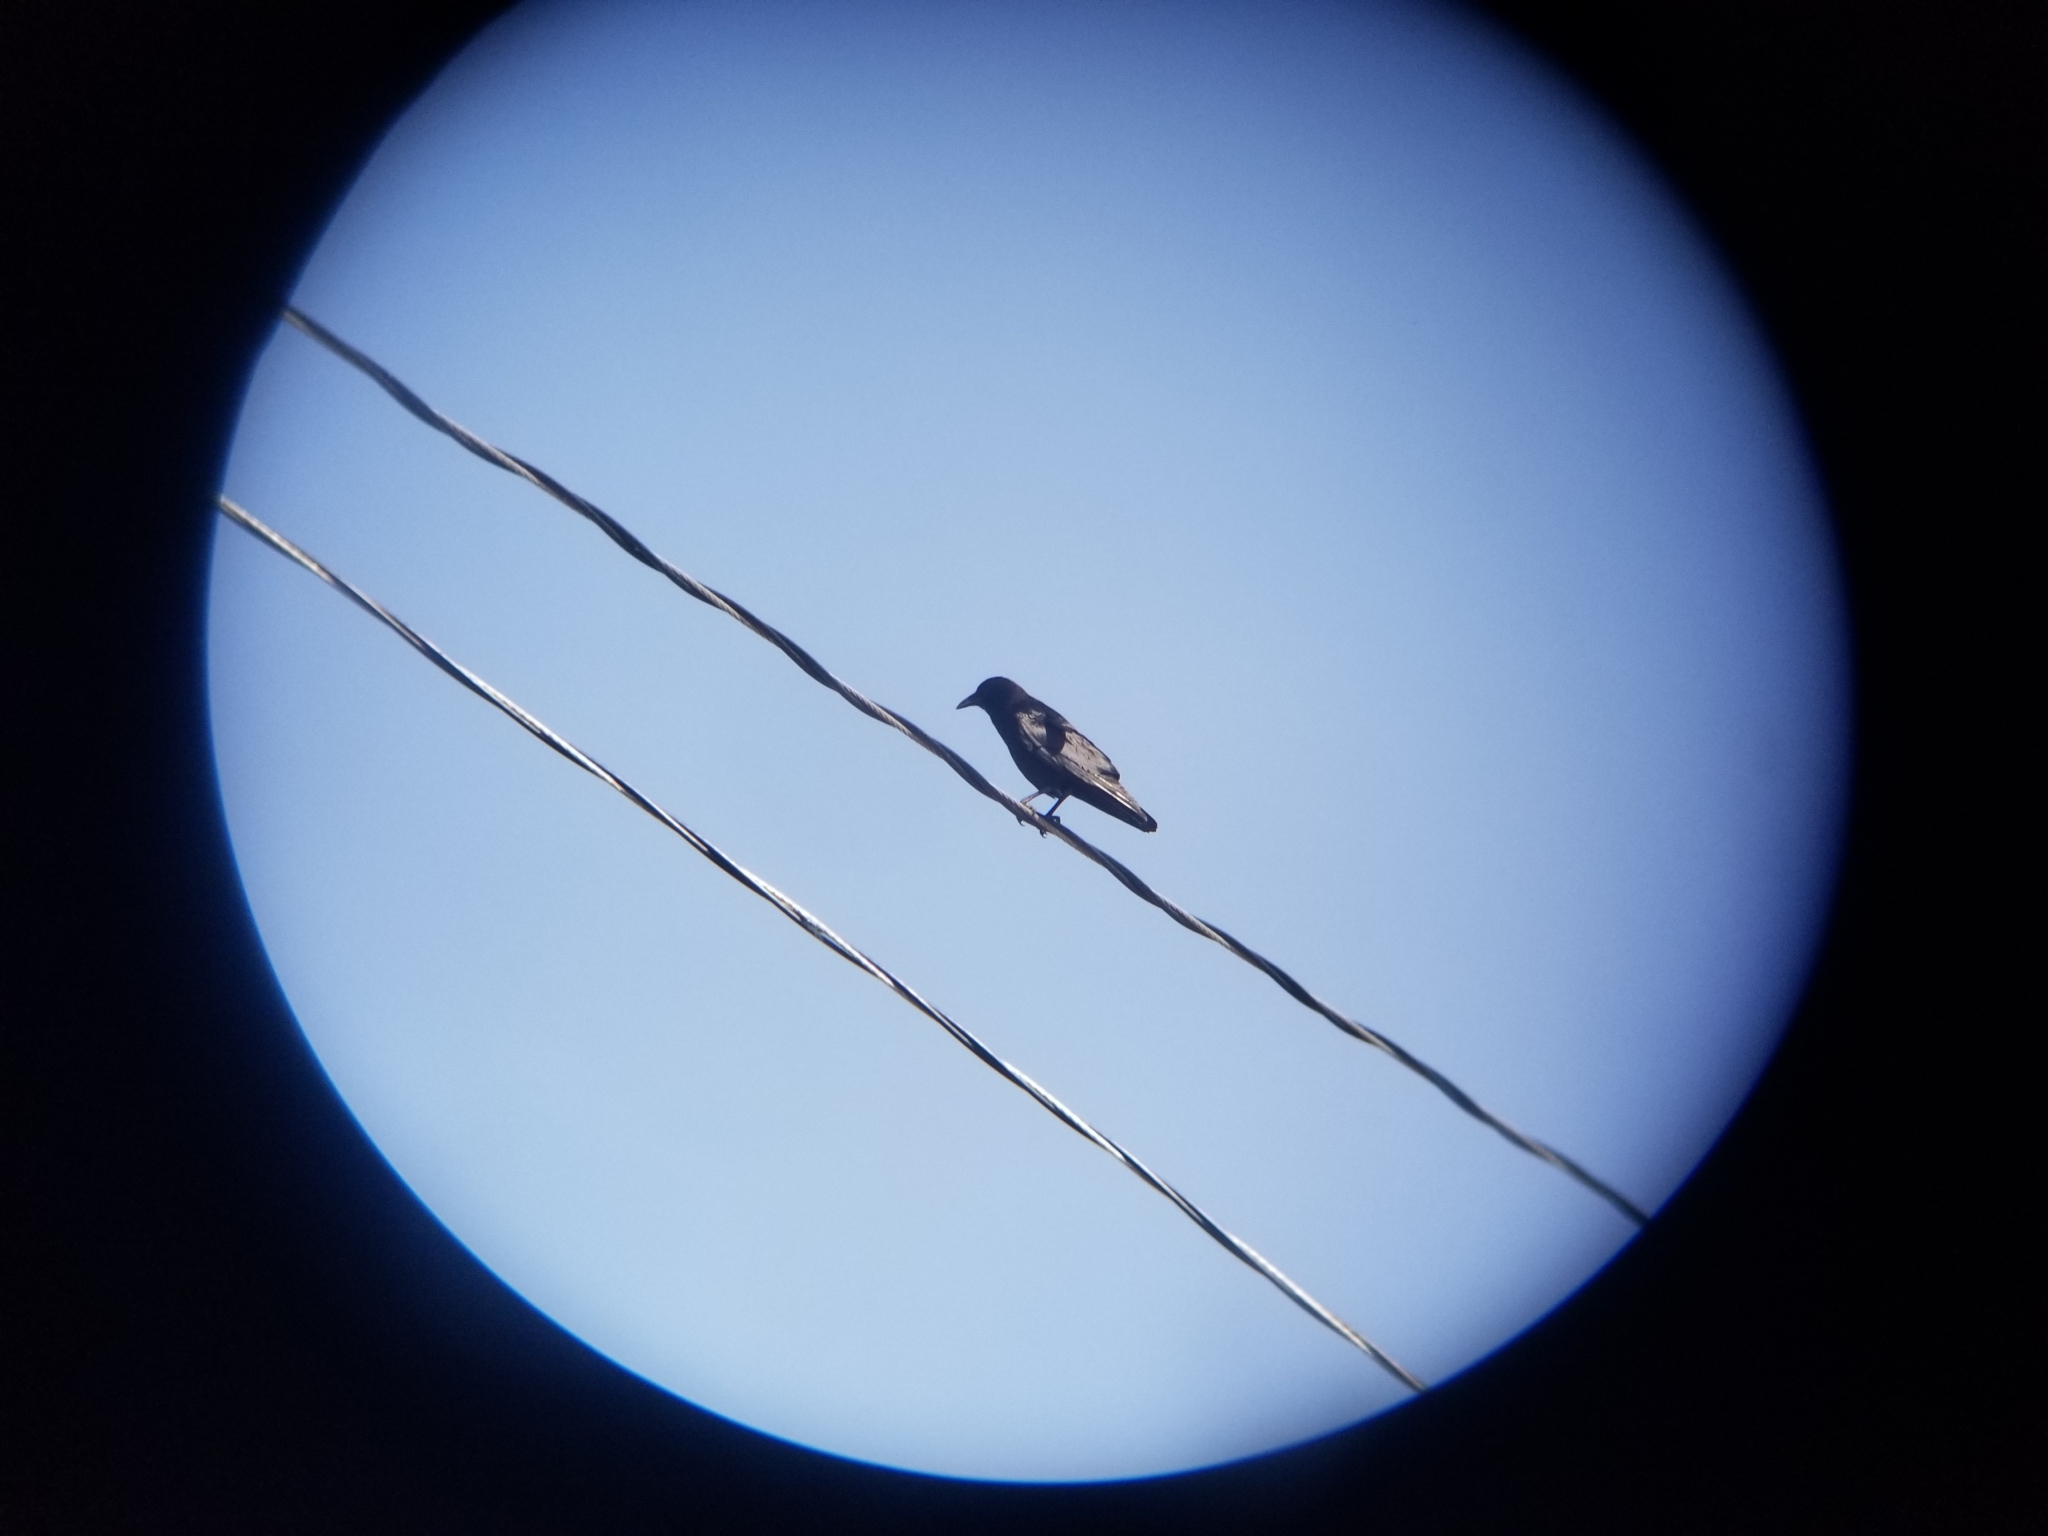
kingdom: Animalia
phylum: Chordata
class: Aves
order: Passeriformes
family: Corvidae
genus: Corvus
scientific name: Corvus brachyrhynchos
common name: American crow
